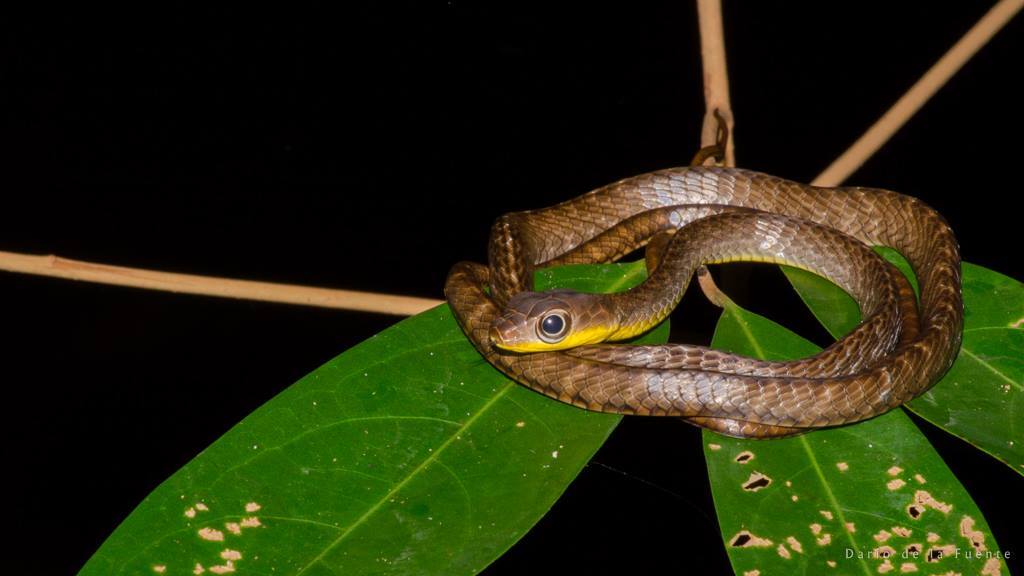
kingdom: Animalia
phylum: Chordata
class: Squamata
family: Colubridae
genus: Chironius
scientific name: Chironius fuscus
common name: Brown sipo
